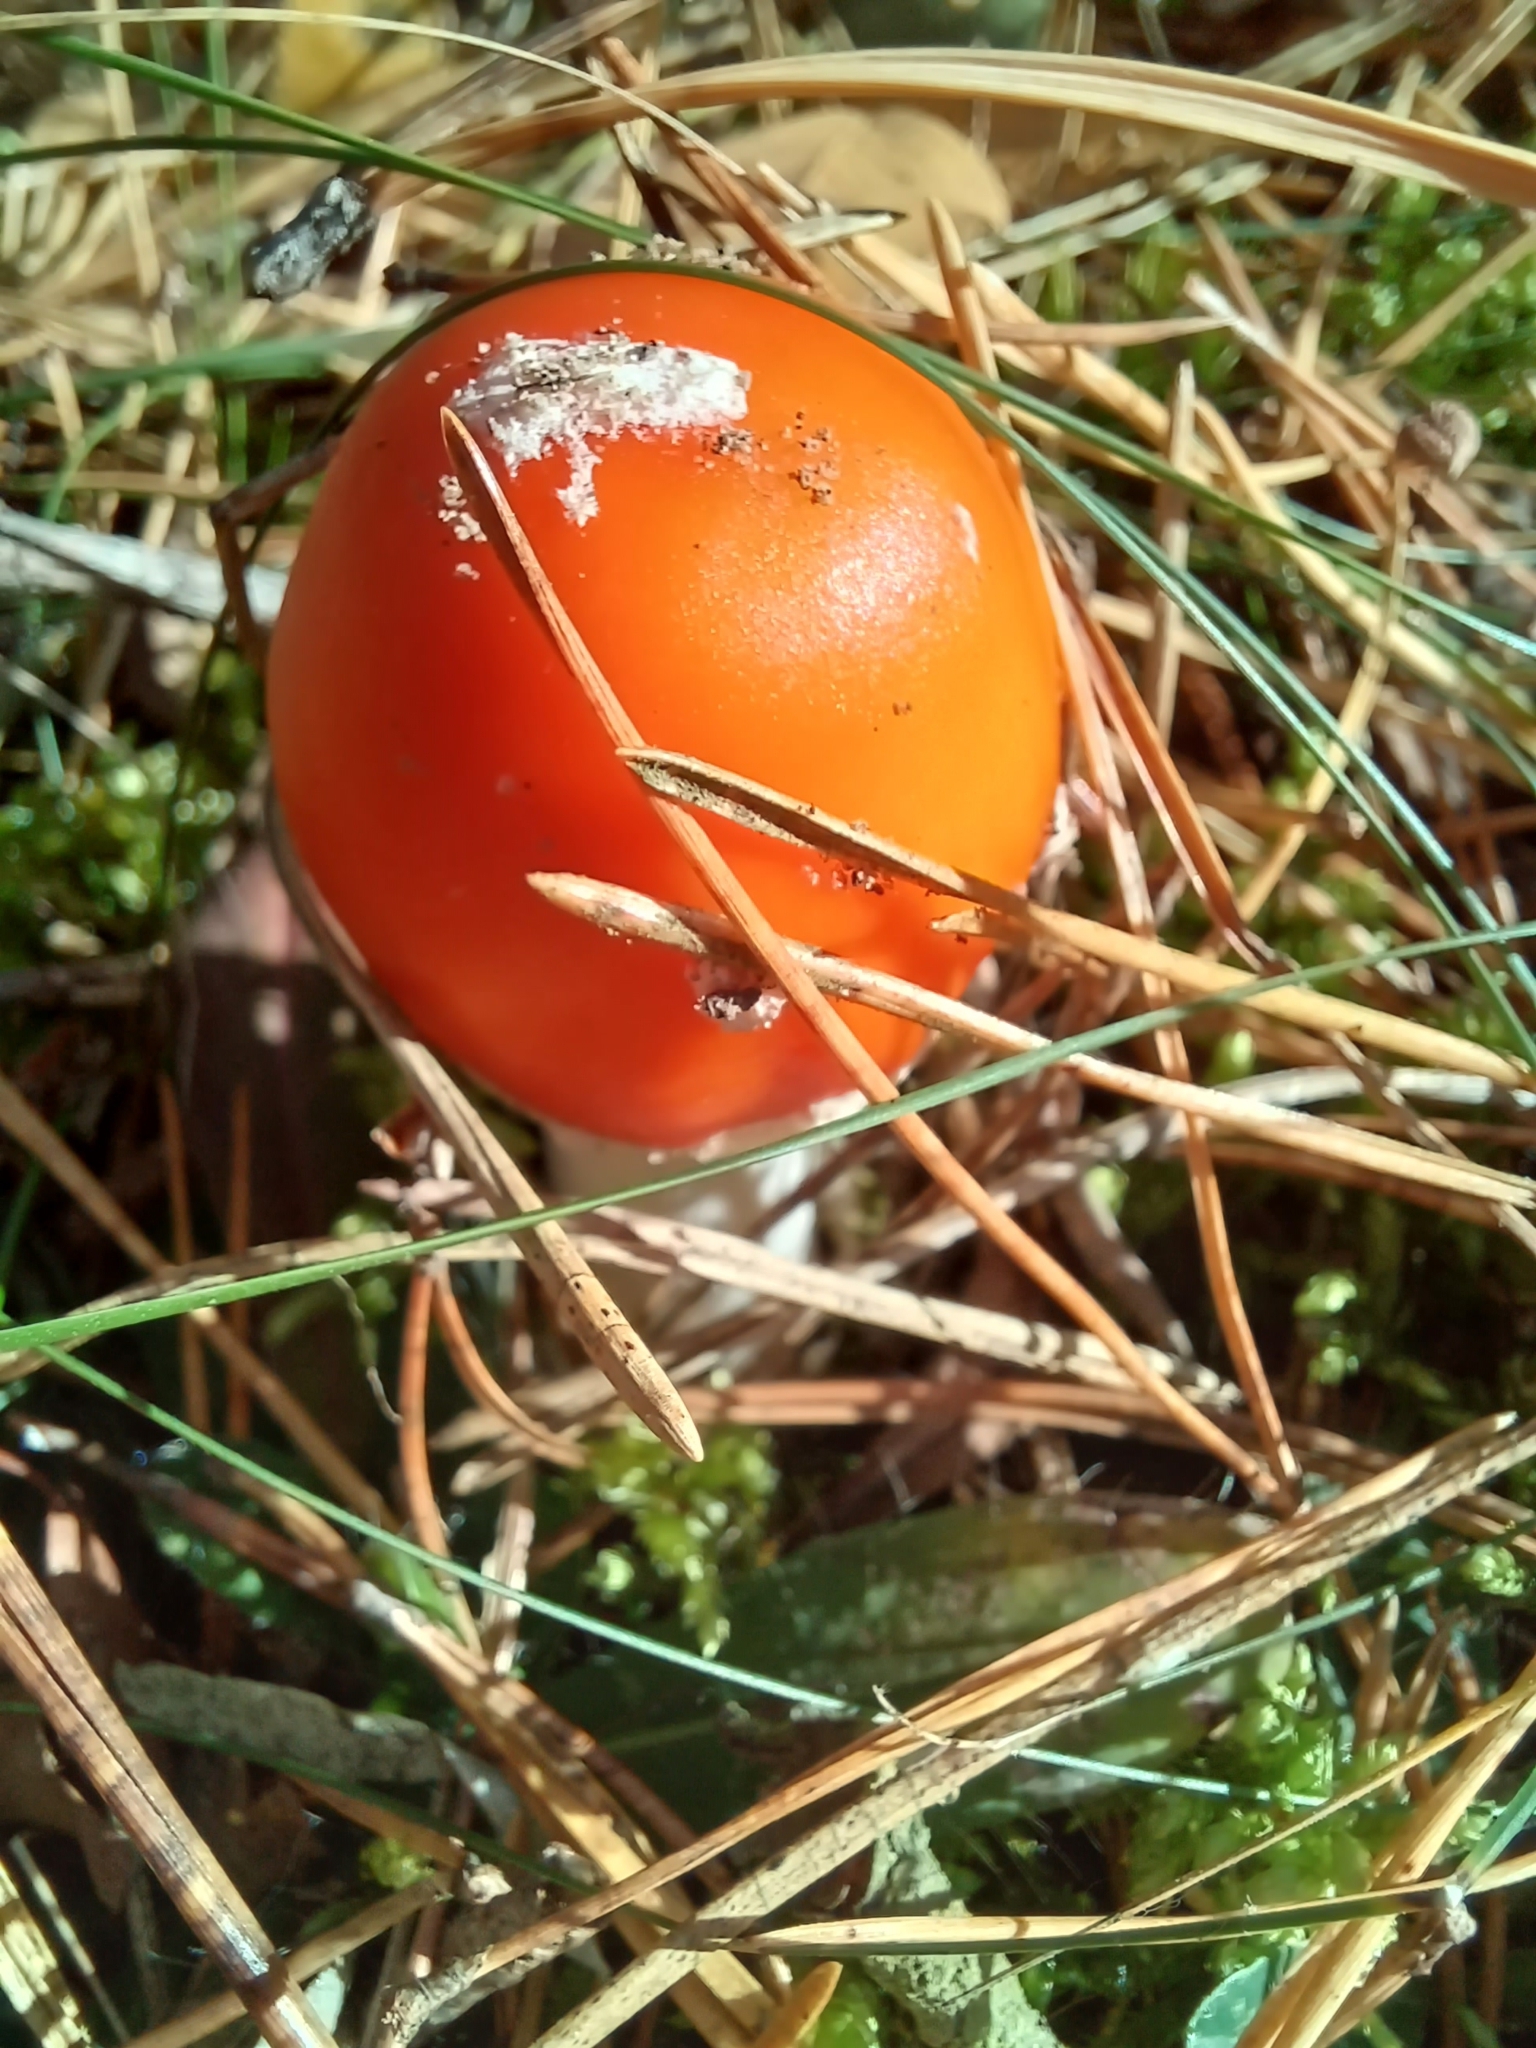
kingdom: Fungi
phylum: Basidiomycota
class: Agaricomycetes
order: Agaricales
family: Amanitaceae
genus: Amanita
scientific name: Amanita muscaria
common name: Fly agaric
